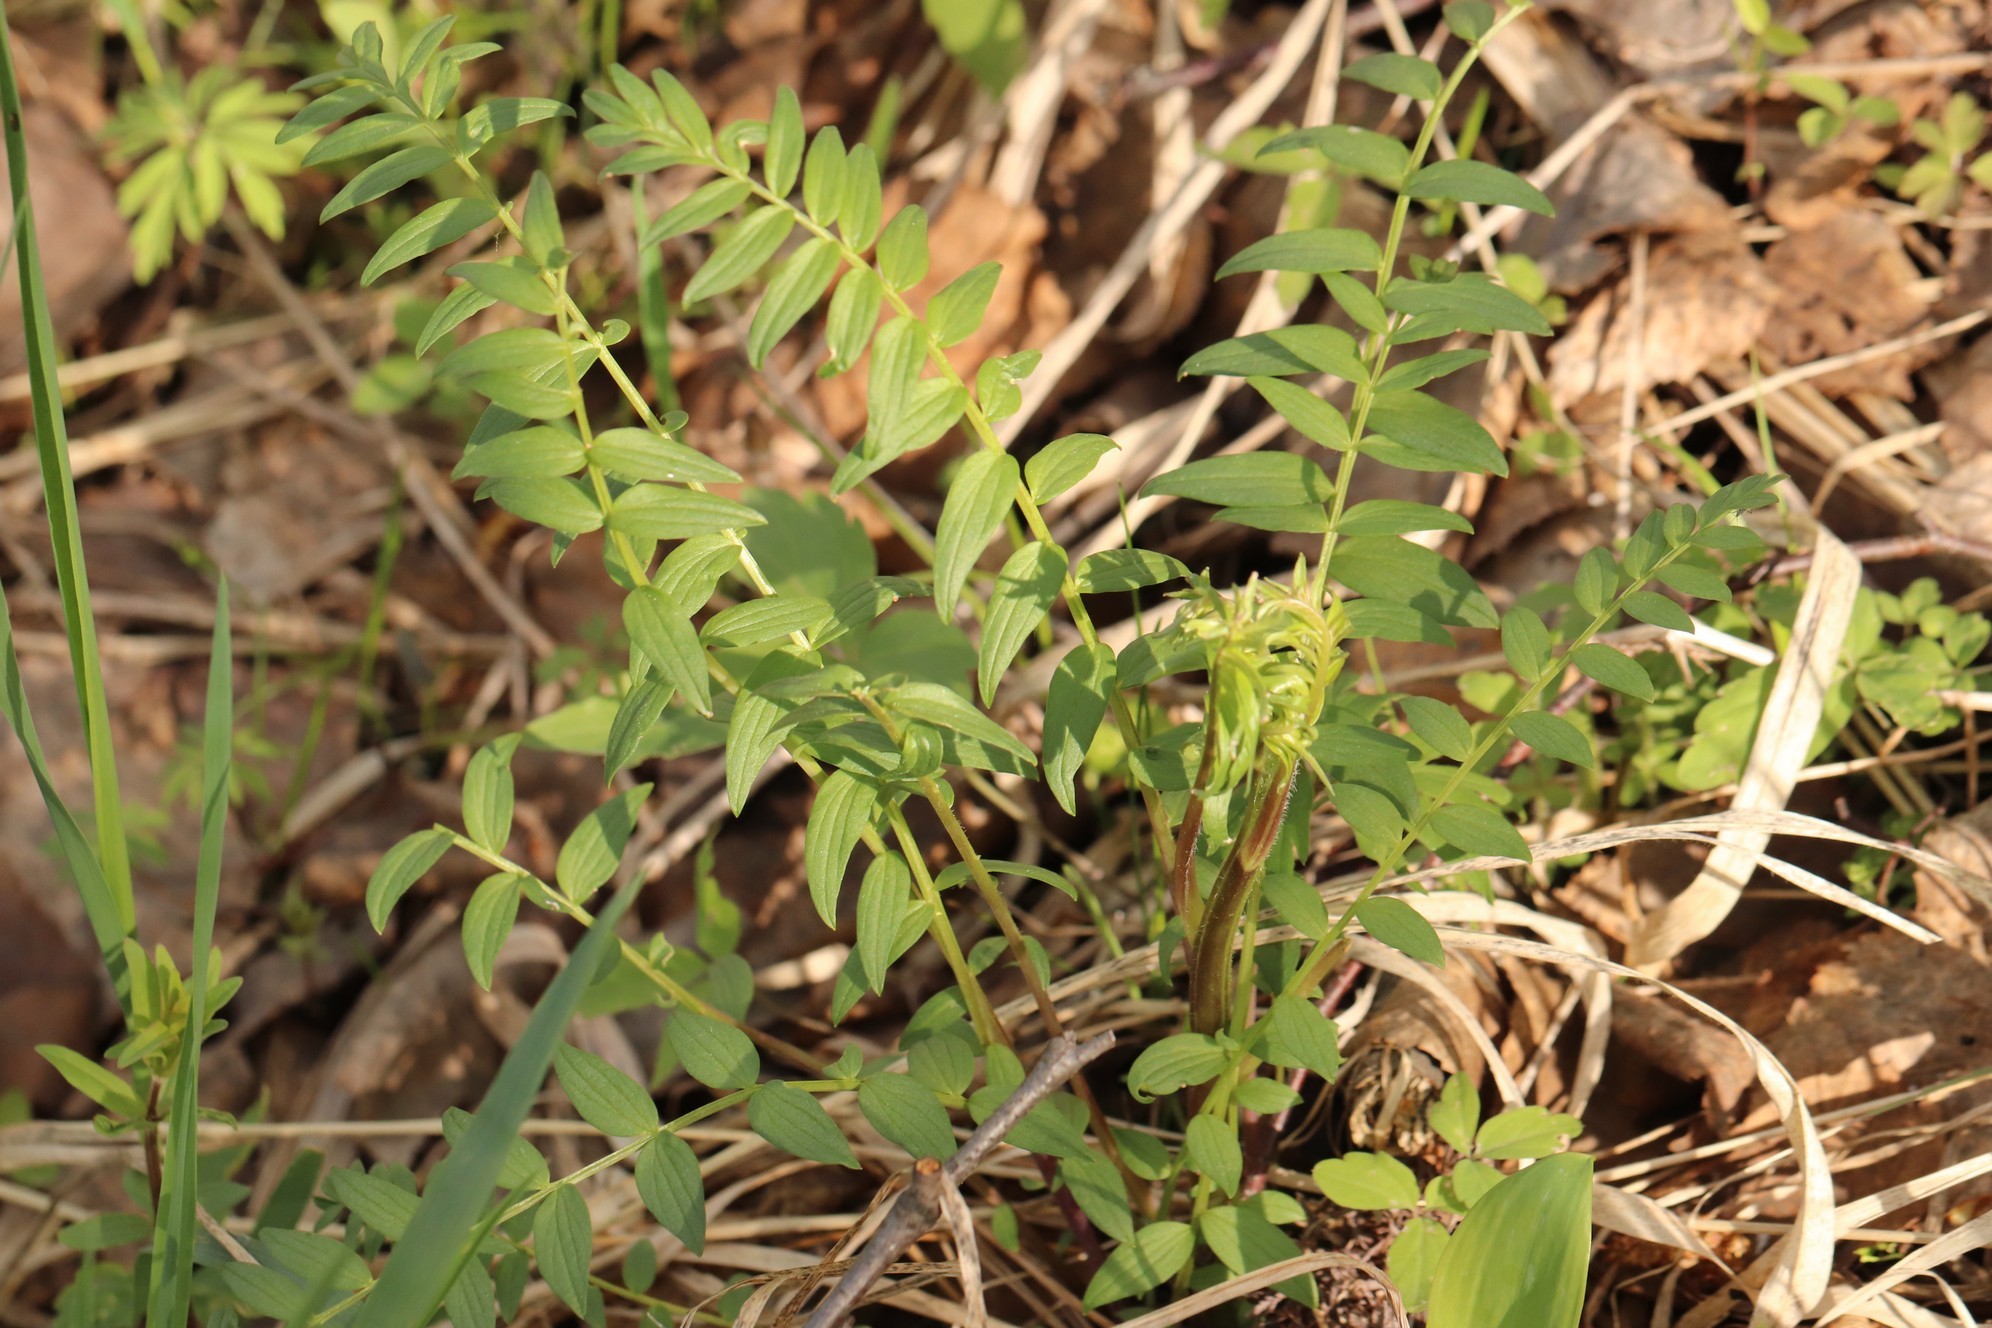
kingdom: Plantae
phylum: Tracheophyta
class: Magnoliopsida
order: Ericales
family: Polemoniaceae
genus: Polemonium
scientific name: Polemonium caeruleum
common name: Jacob's-ladder
